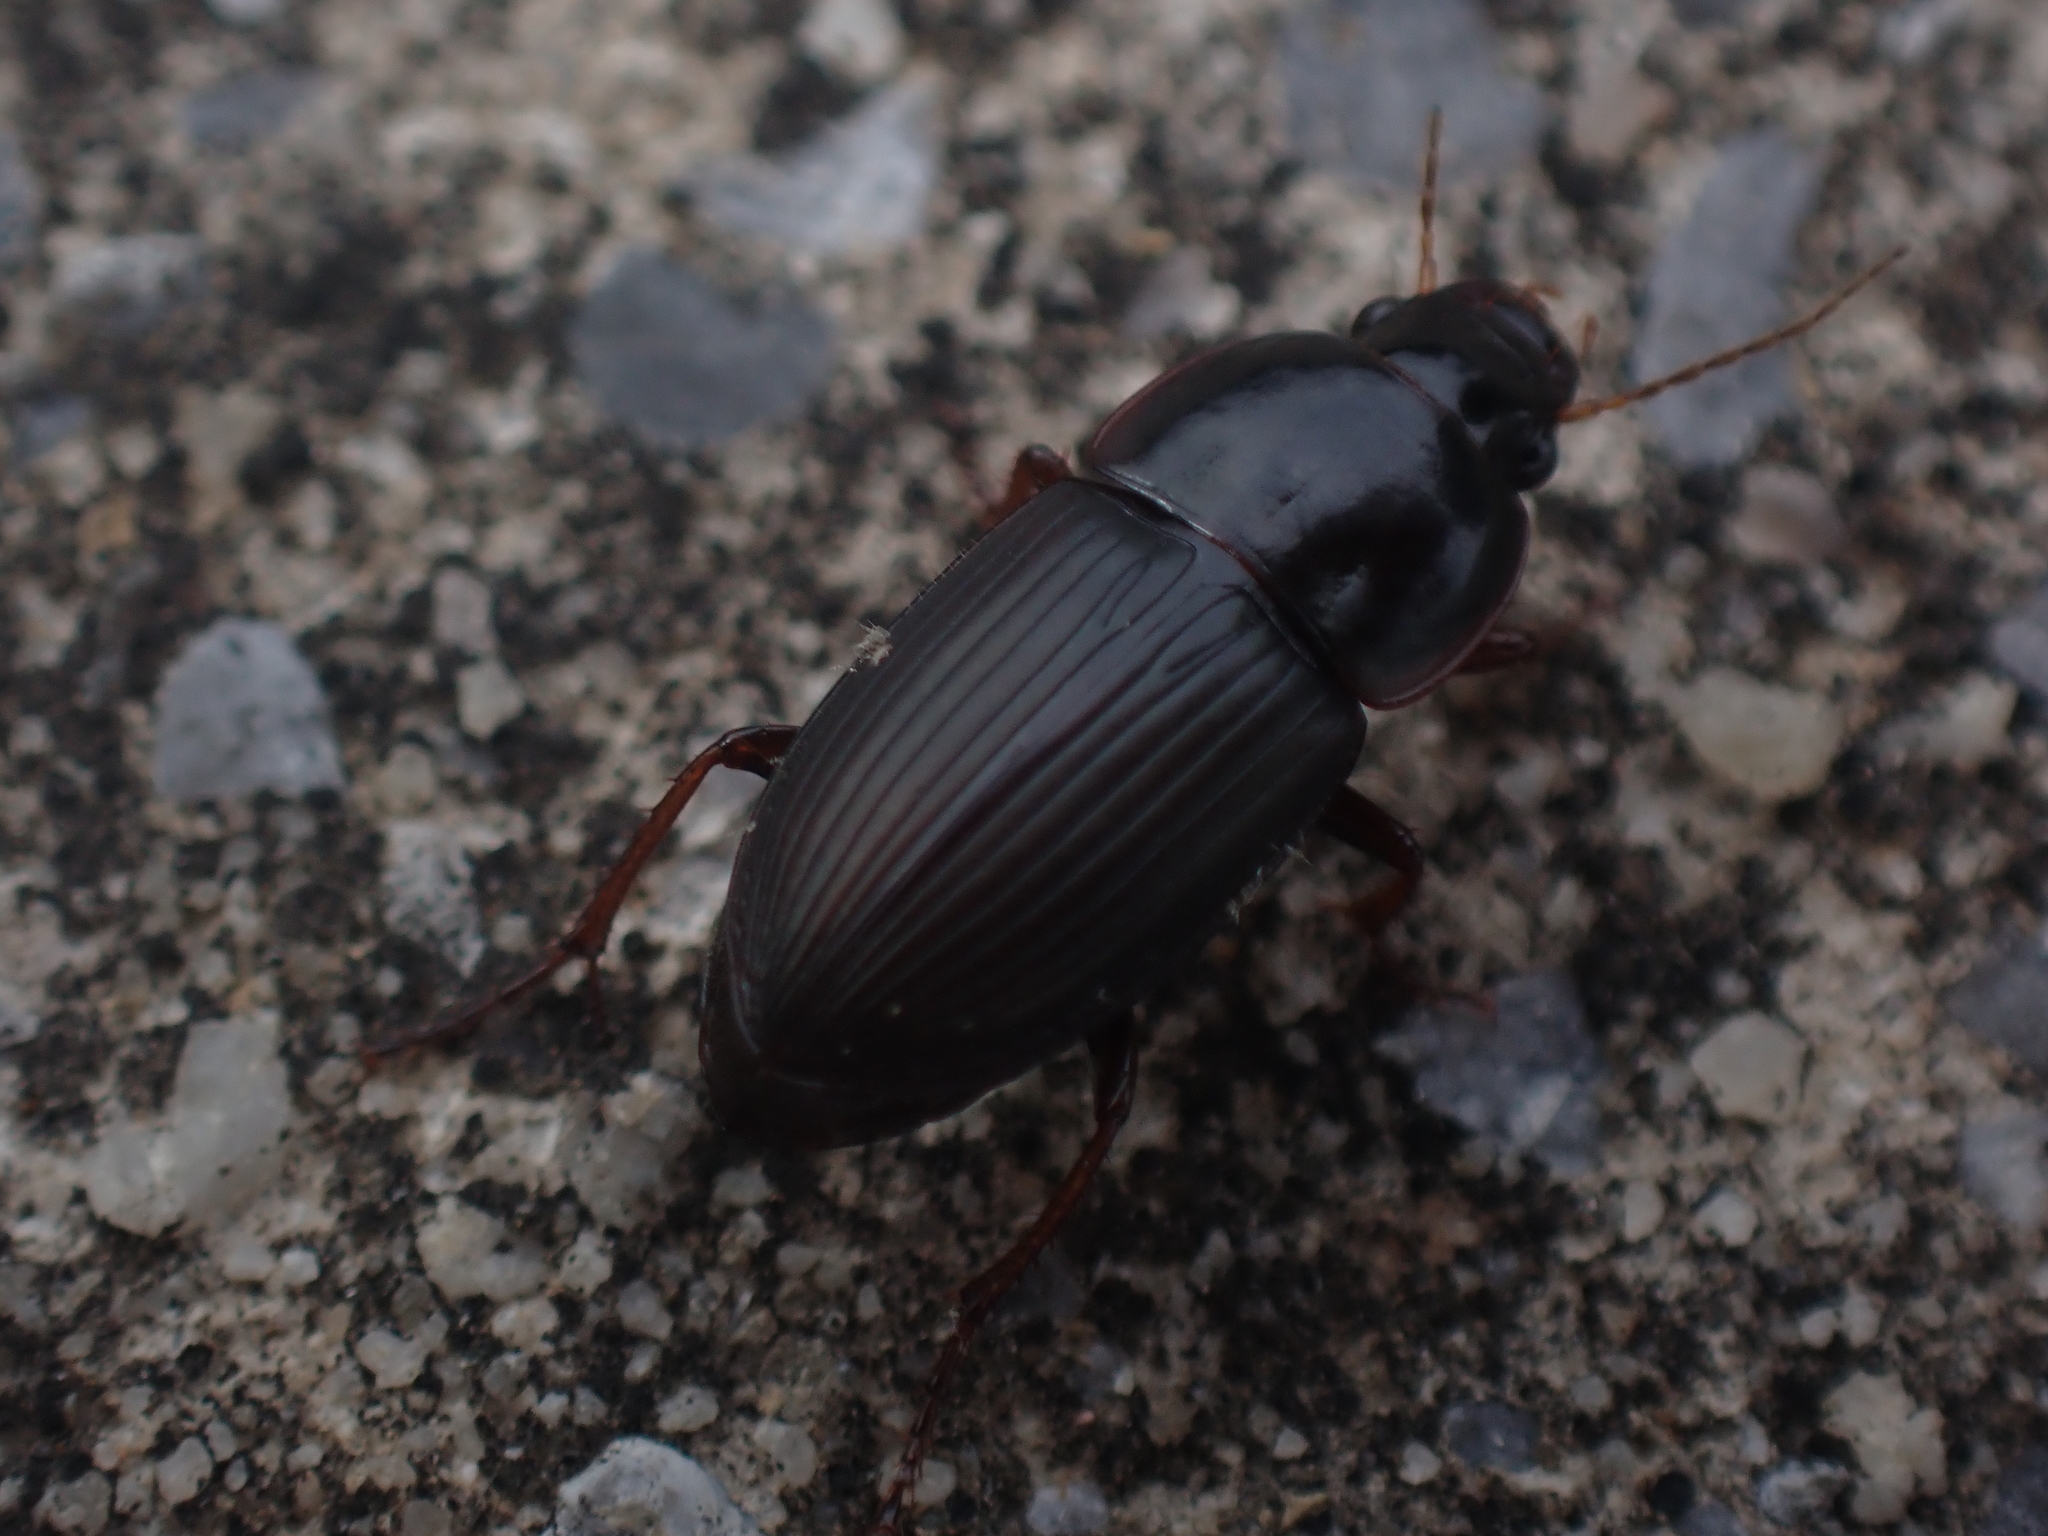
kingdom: Animalia
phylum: Arthropoda
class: Insecta
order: Coleoptera
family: Carabidae
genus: Anisodactylus
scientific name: Anisodactylus rusticus
